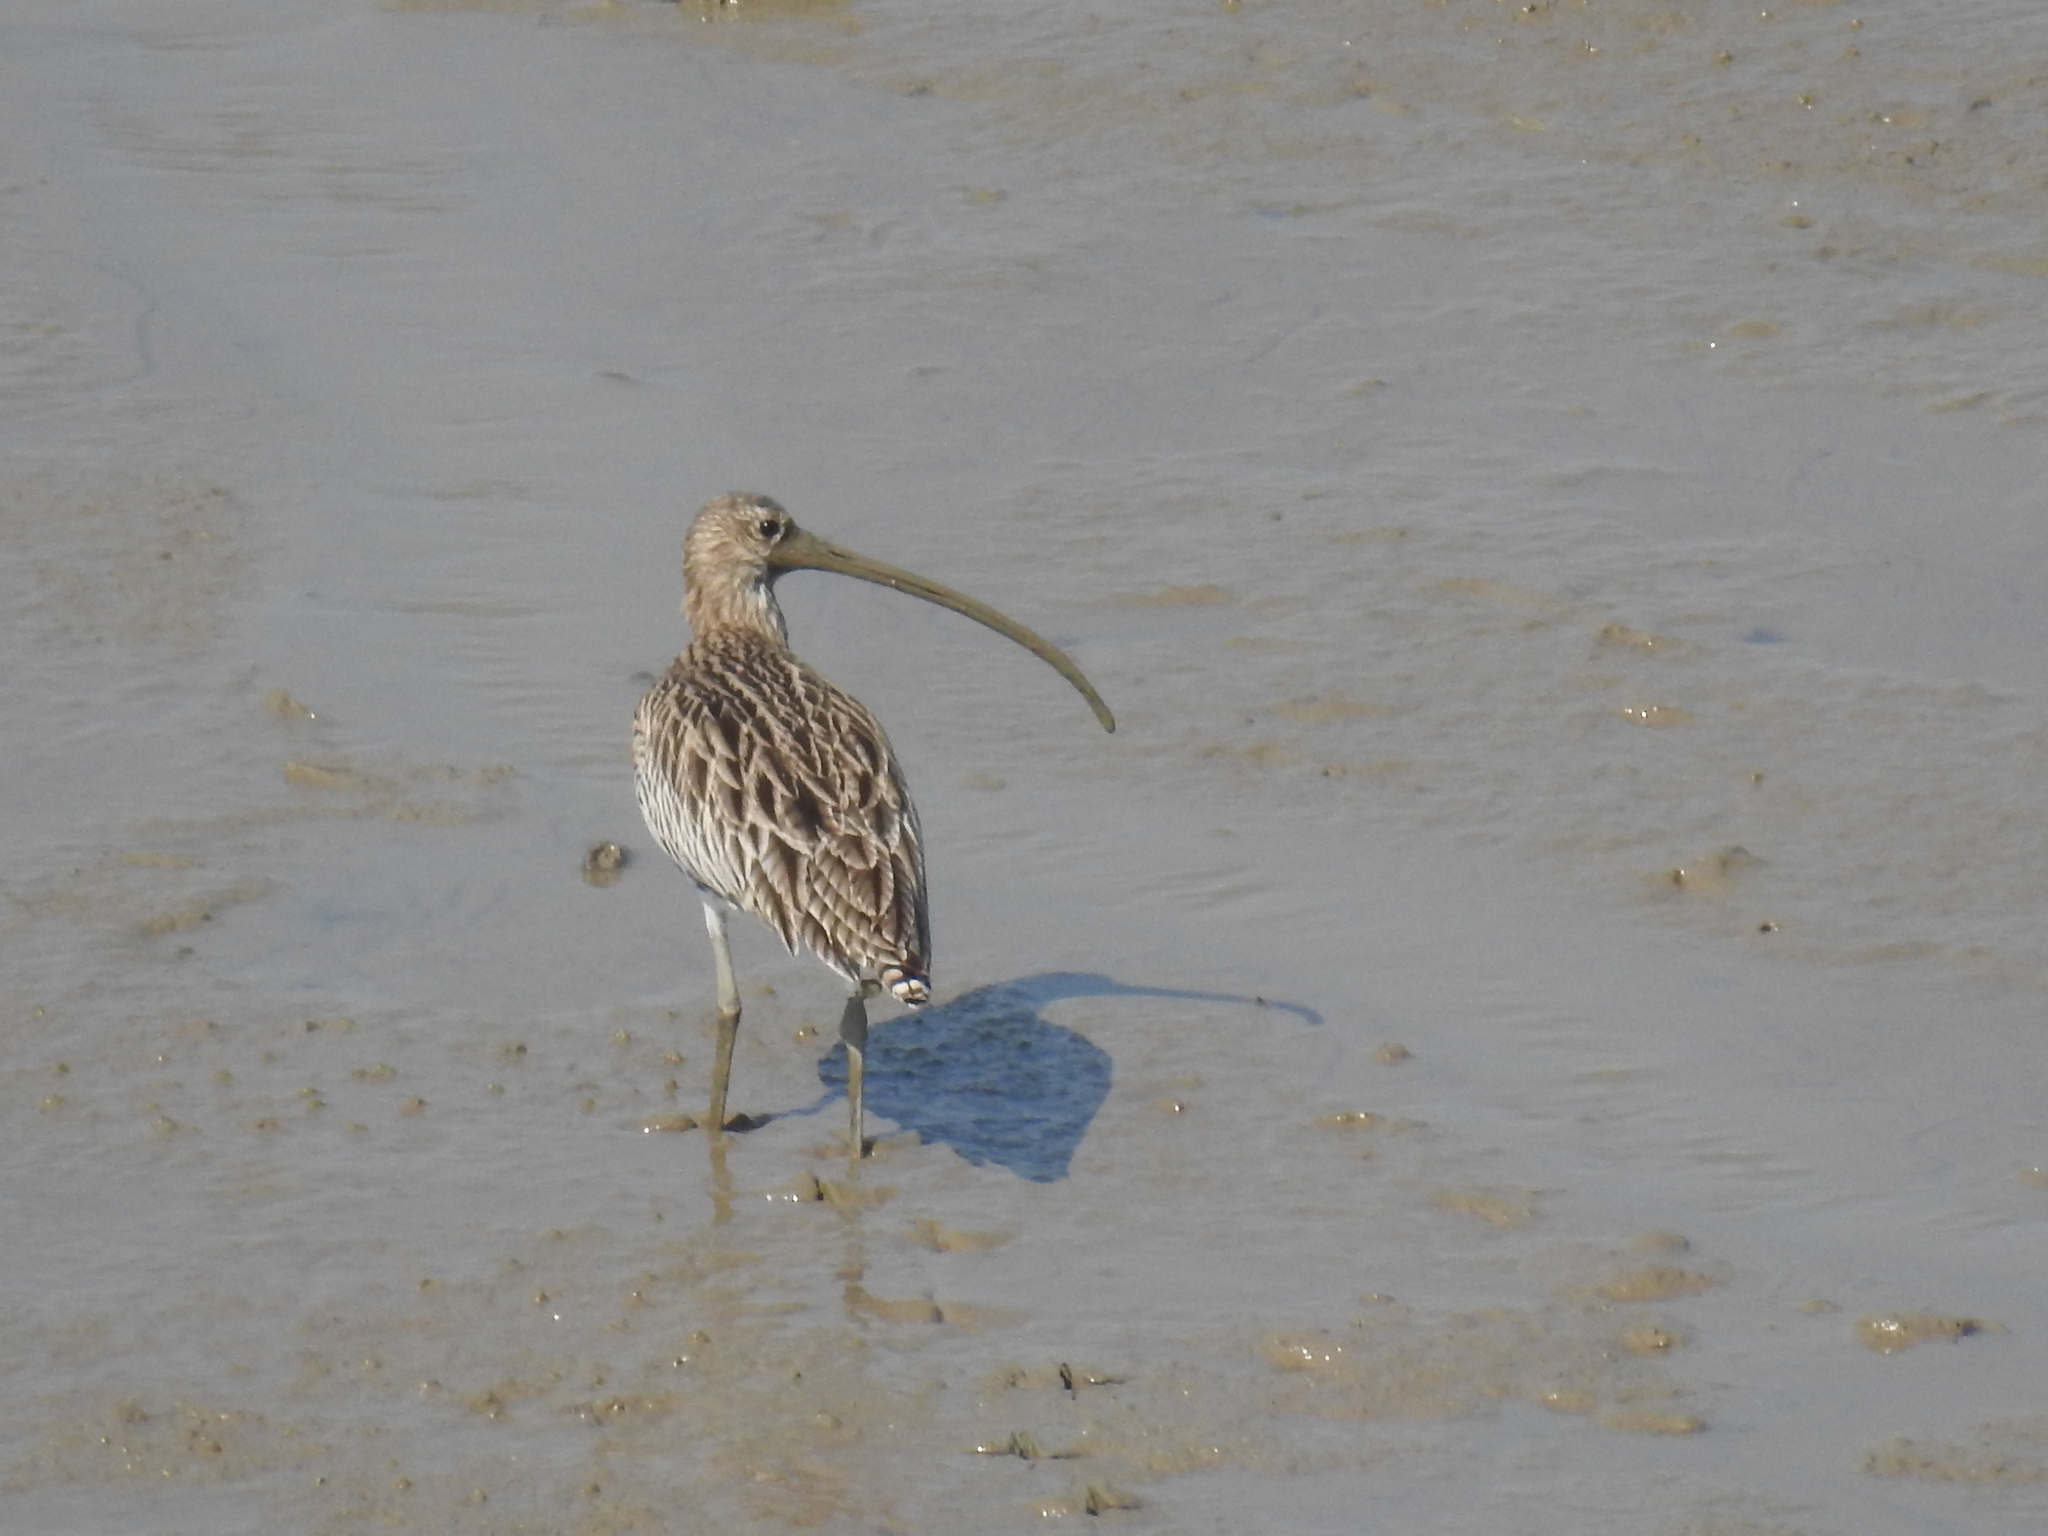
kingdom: Animalia
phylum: Chordata
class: Aves
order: Charadriiformes
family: Scolopacidae
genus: Numenius
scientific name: Numenius arquata
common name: Eurasian curlew
